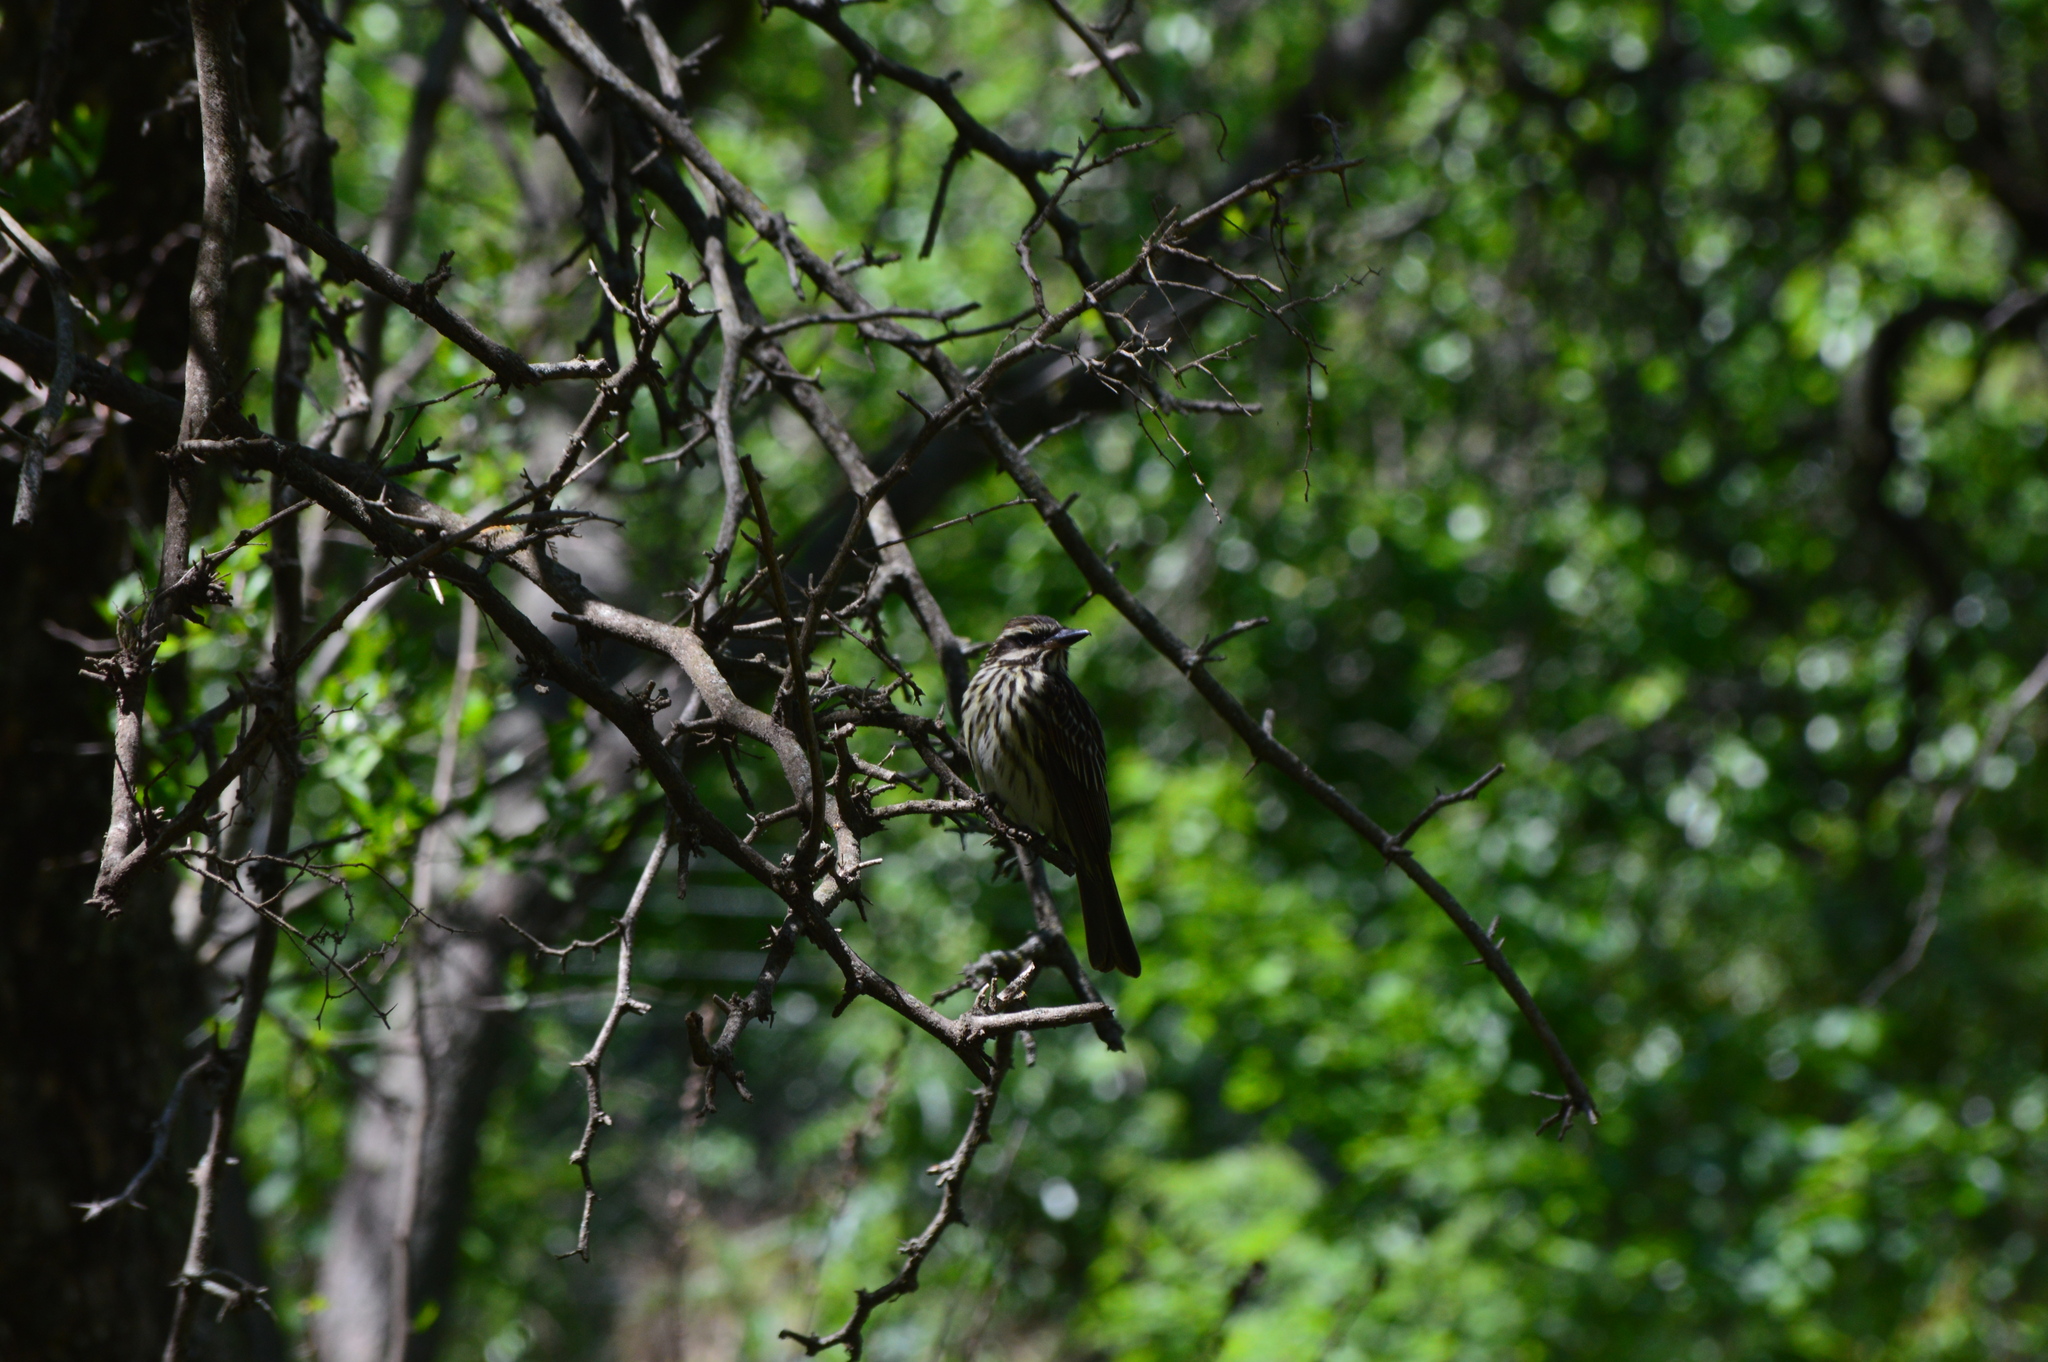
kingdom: Animalia
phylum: Chordata
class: Aves
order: Passeriformes
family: Tyrannidae
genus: Myiodynastes
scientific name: Myiodynastes maculatus
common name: Streaked flycatcher
